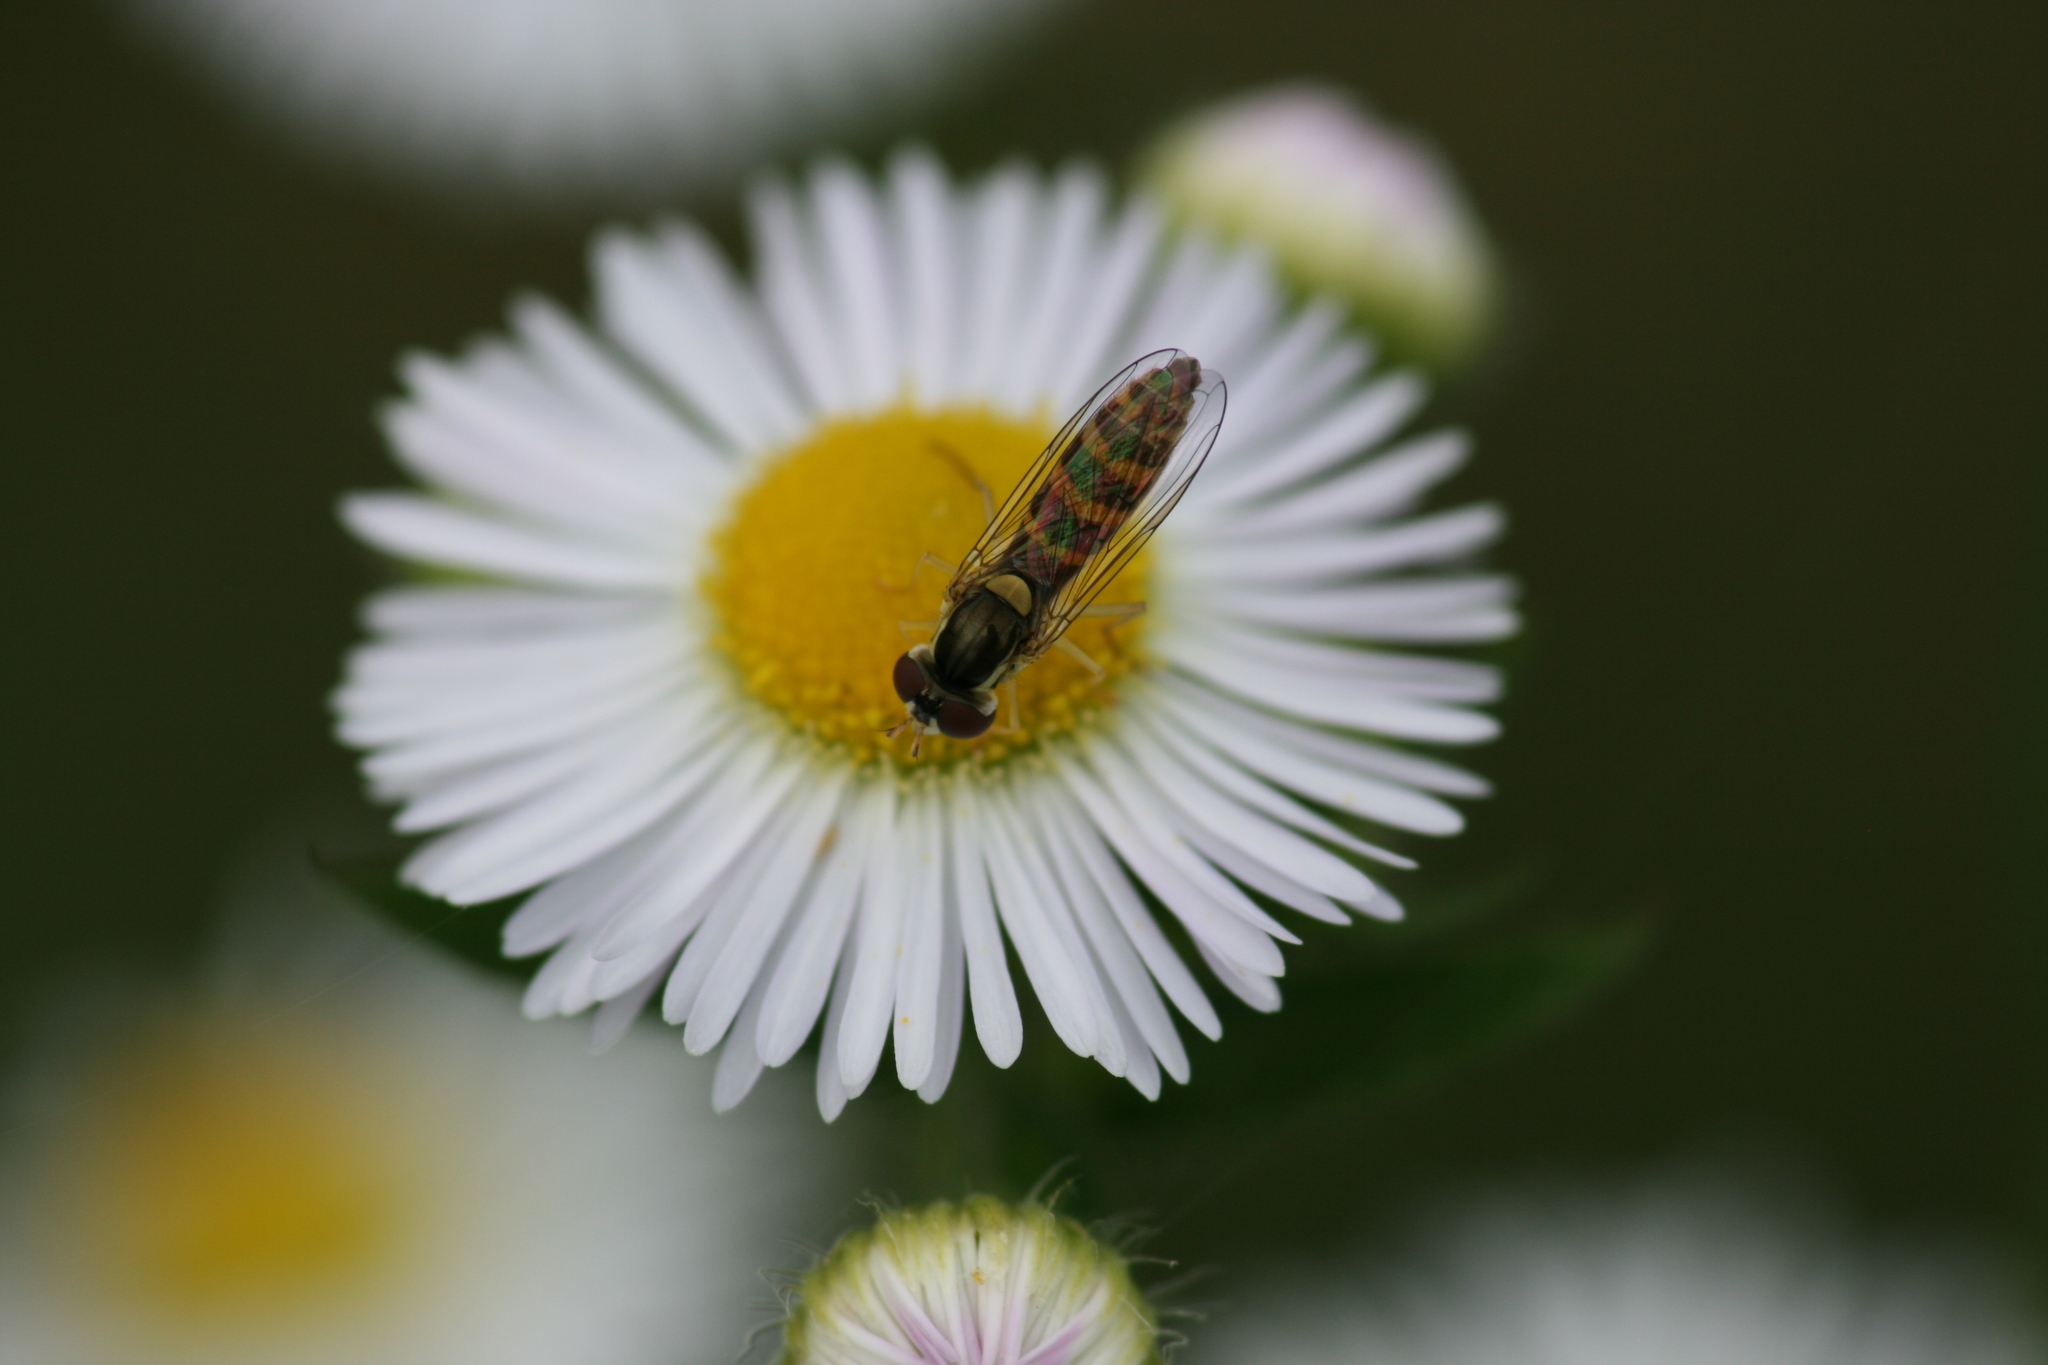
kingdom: Animalia
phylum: Arthropoda
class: Insecta
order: Diptera
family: Syrphidae
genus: Sphaerophoria
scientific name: Sphaerophoria
